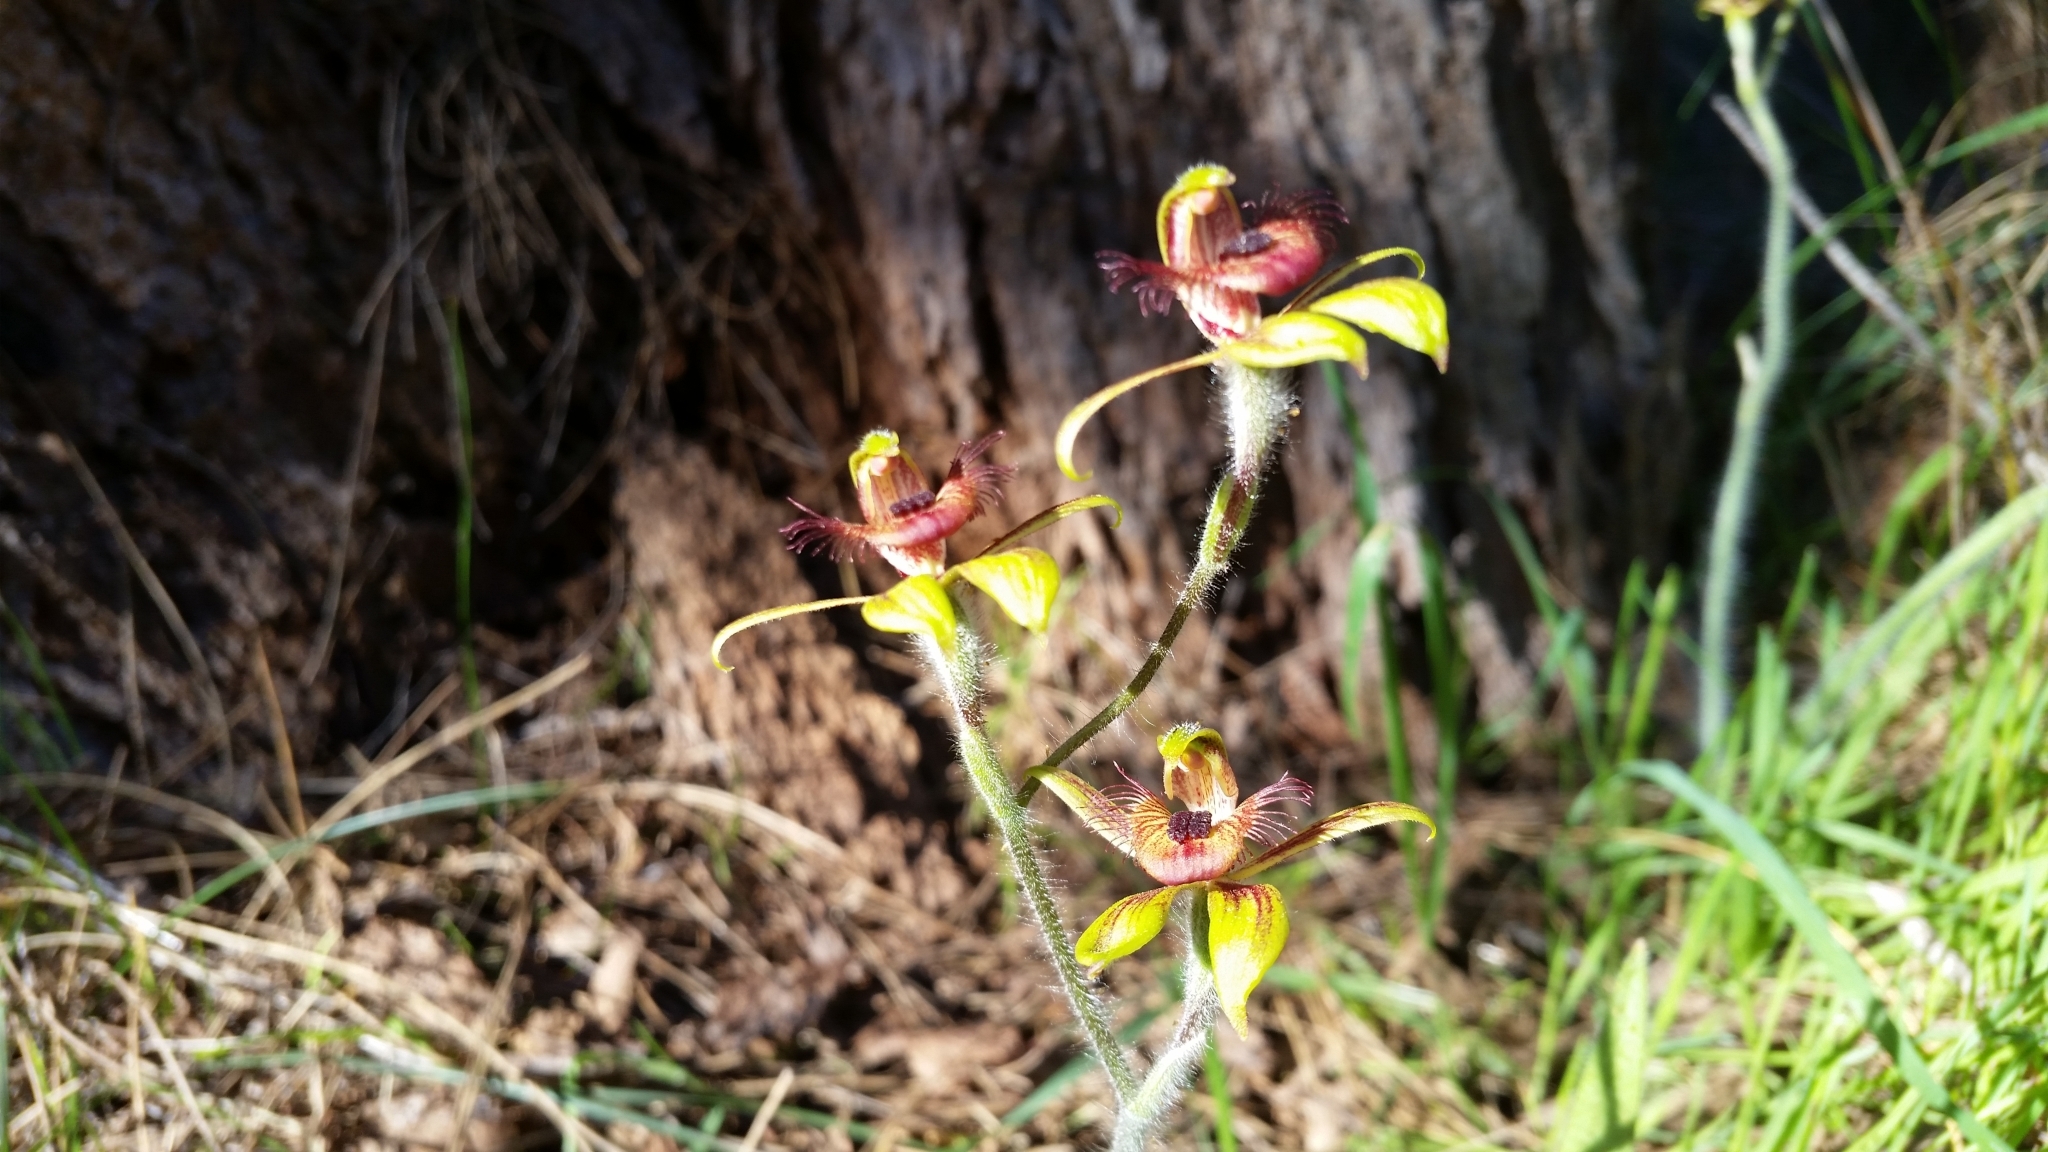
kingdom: Plantae
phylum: Tracheophyta
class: Liliopsida
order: Asparagales
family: Orchidaceae
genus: Caladenia
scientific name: Caladenia discoidea
